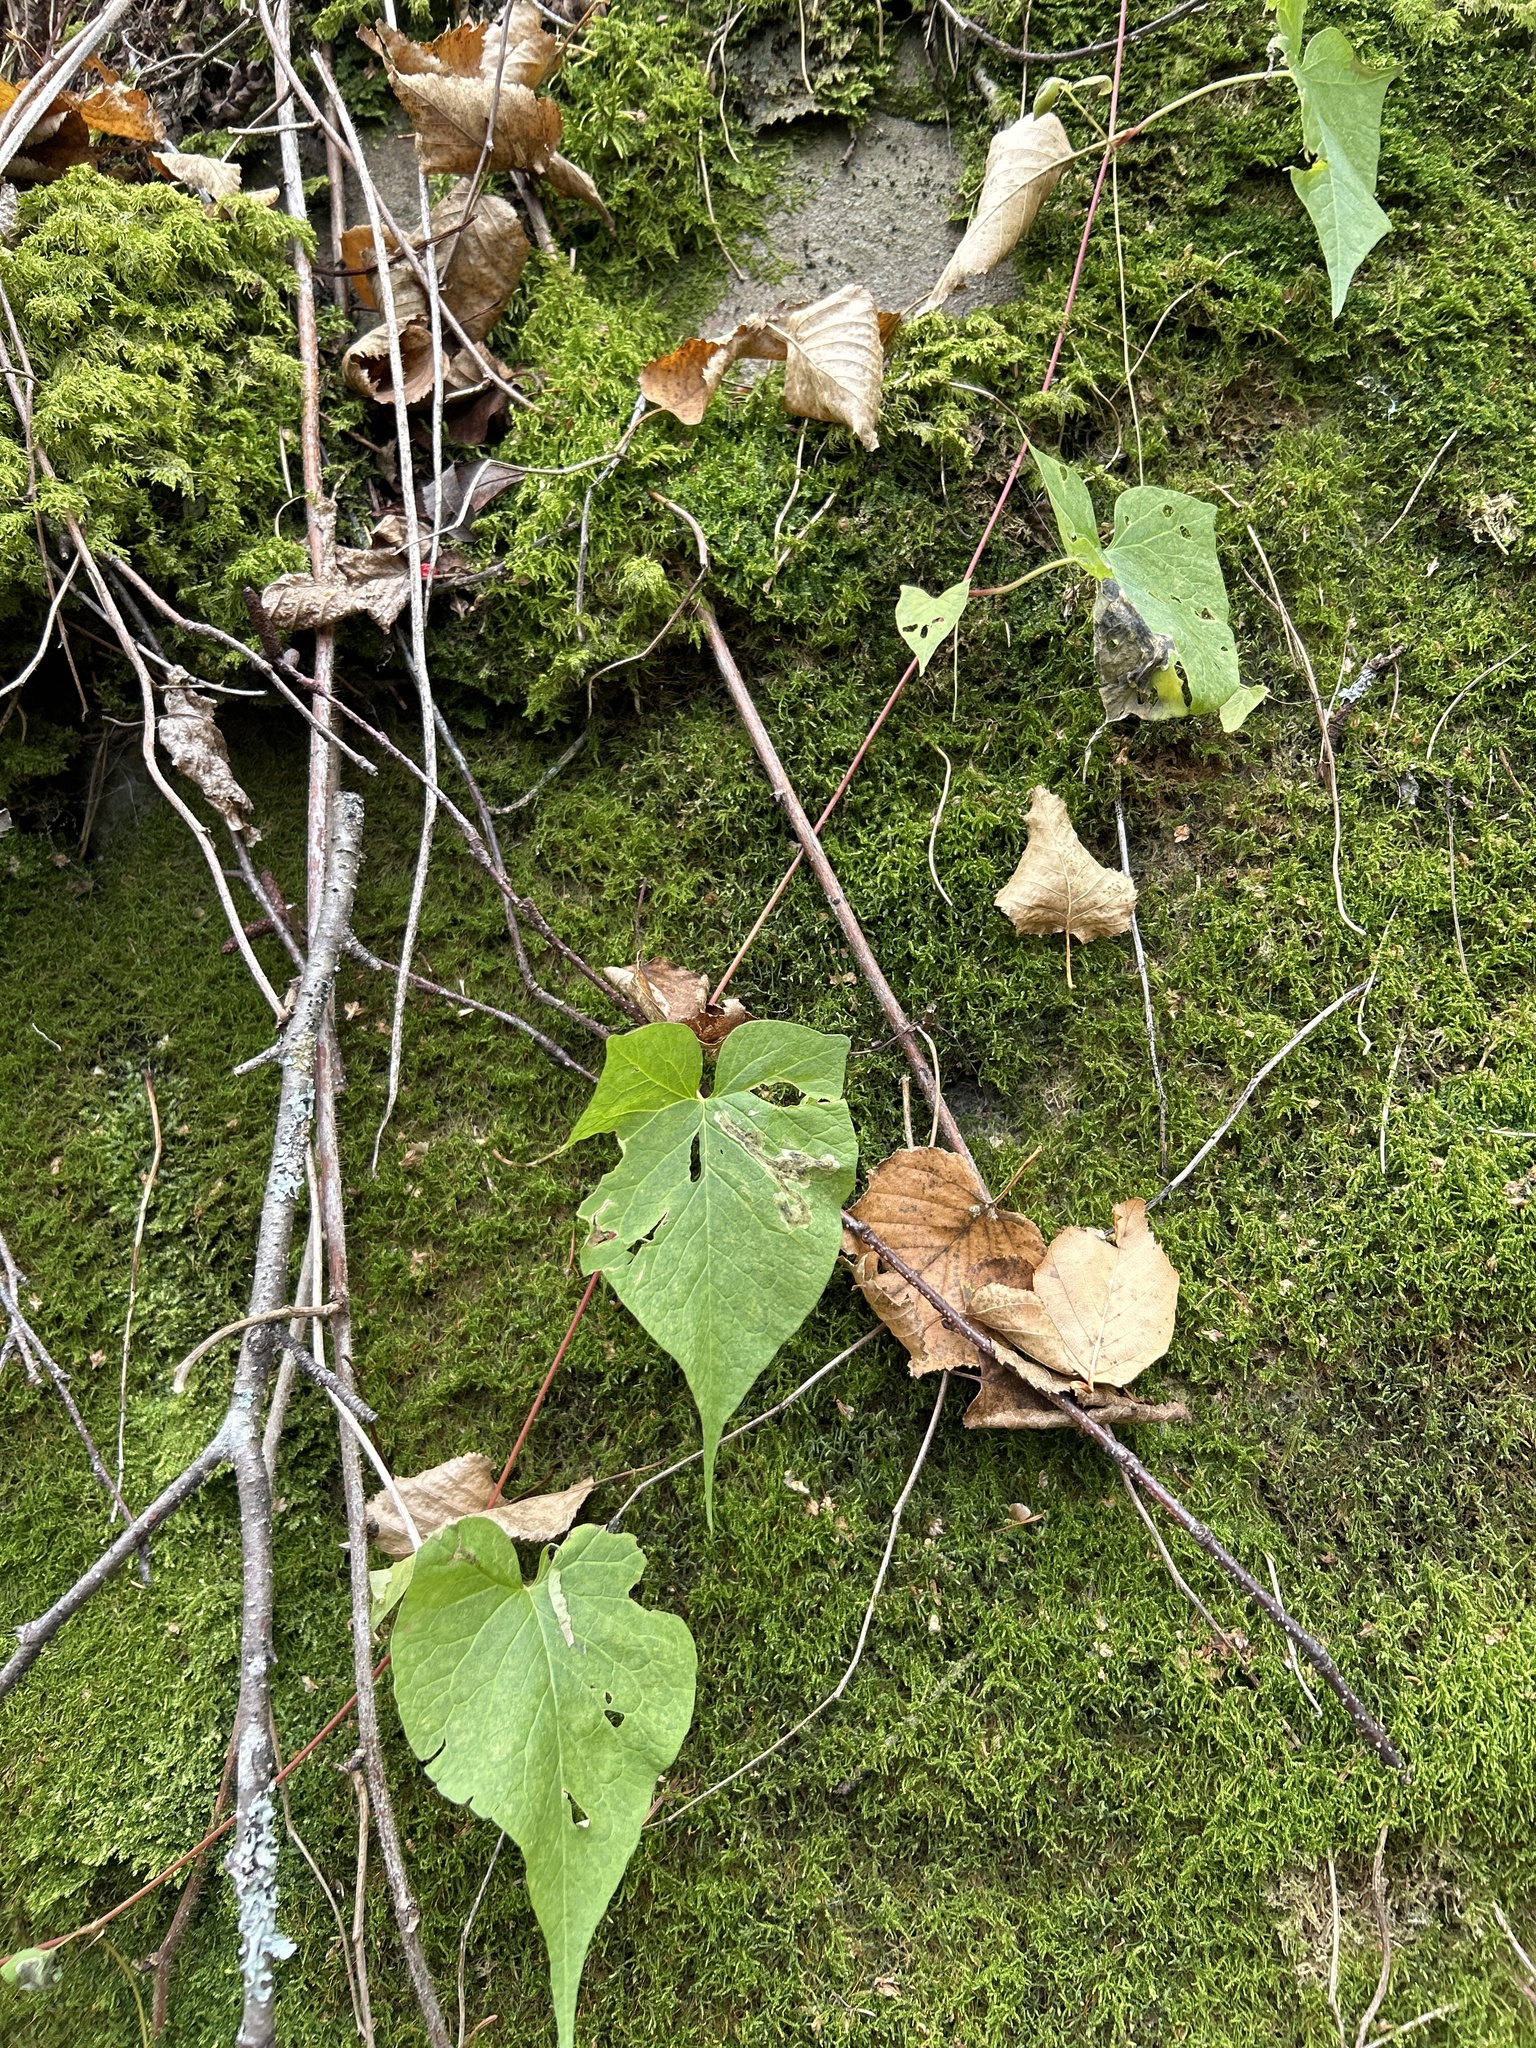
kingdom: Plantae
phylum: Tracheophyta
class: Magnoliopsida
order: Caryophyllales
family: Polygonaceae
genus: Parogonum
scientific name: Parogonum ciliinode
